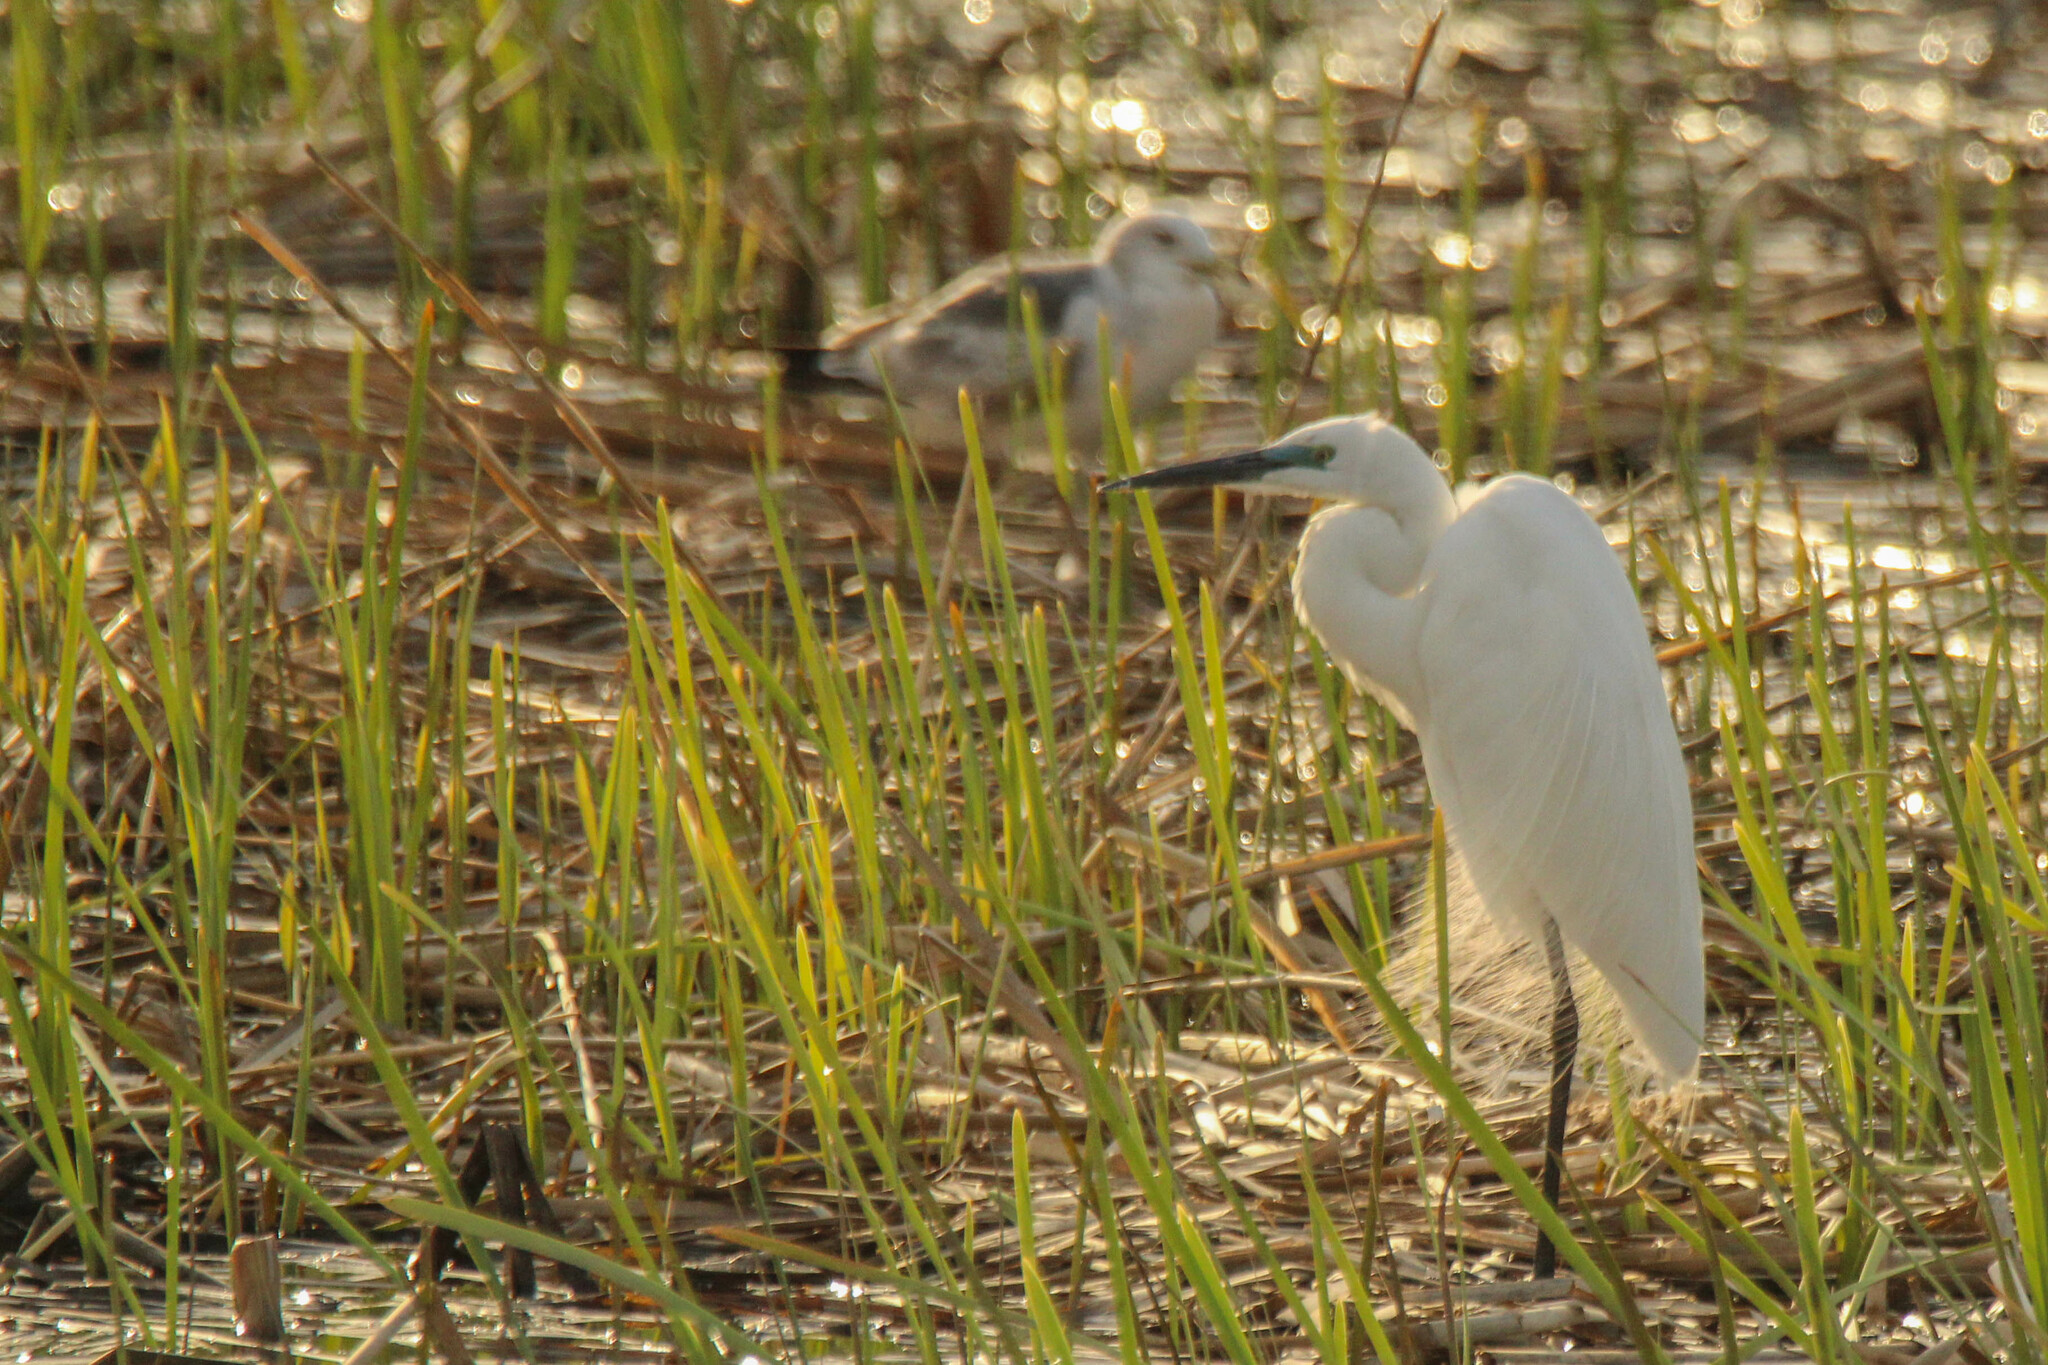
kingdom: Animalia
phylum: Chordata
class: Aves
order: Pelecaniformes
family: Ardeidae
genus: Ardea
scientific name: Ardea modesta
